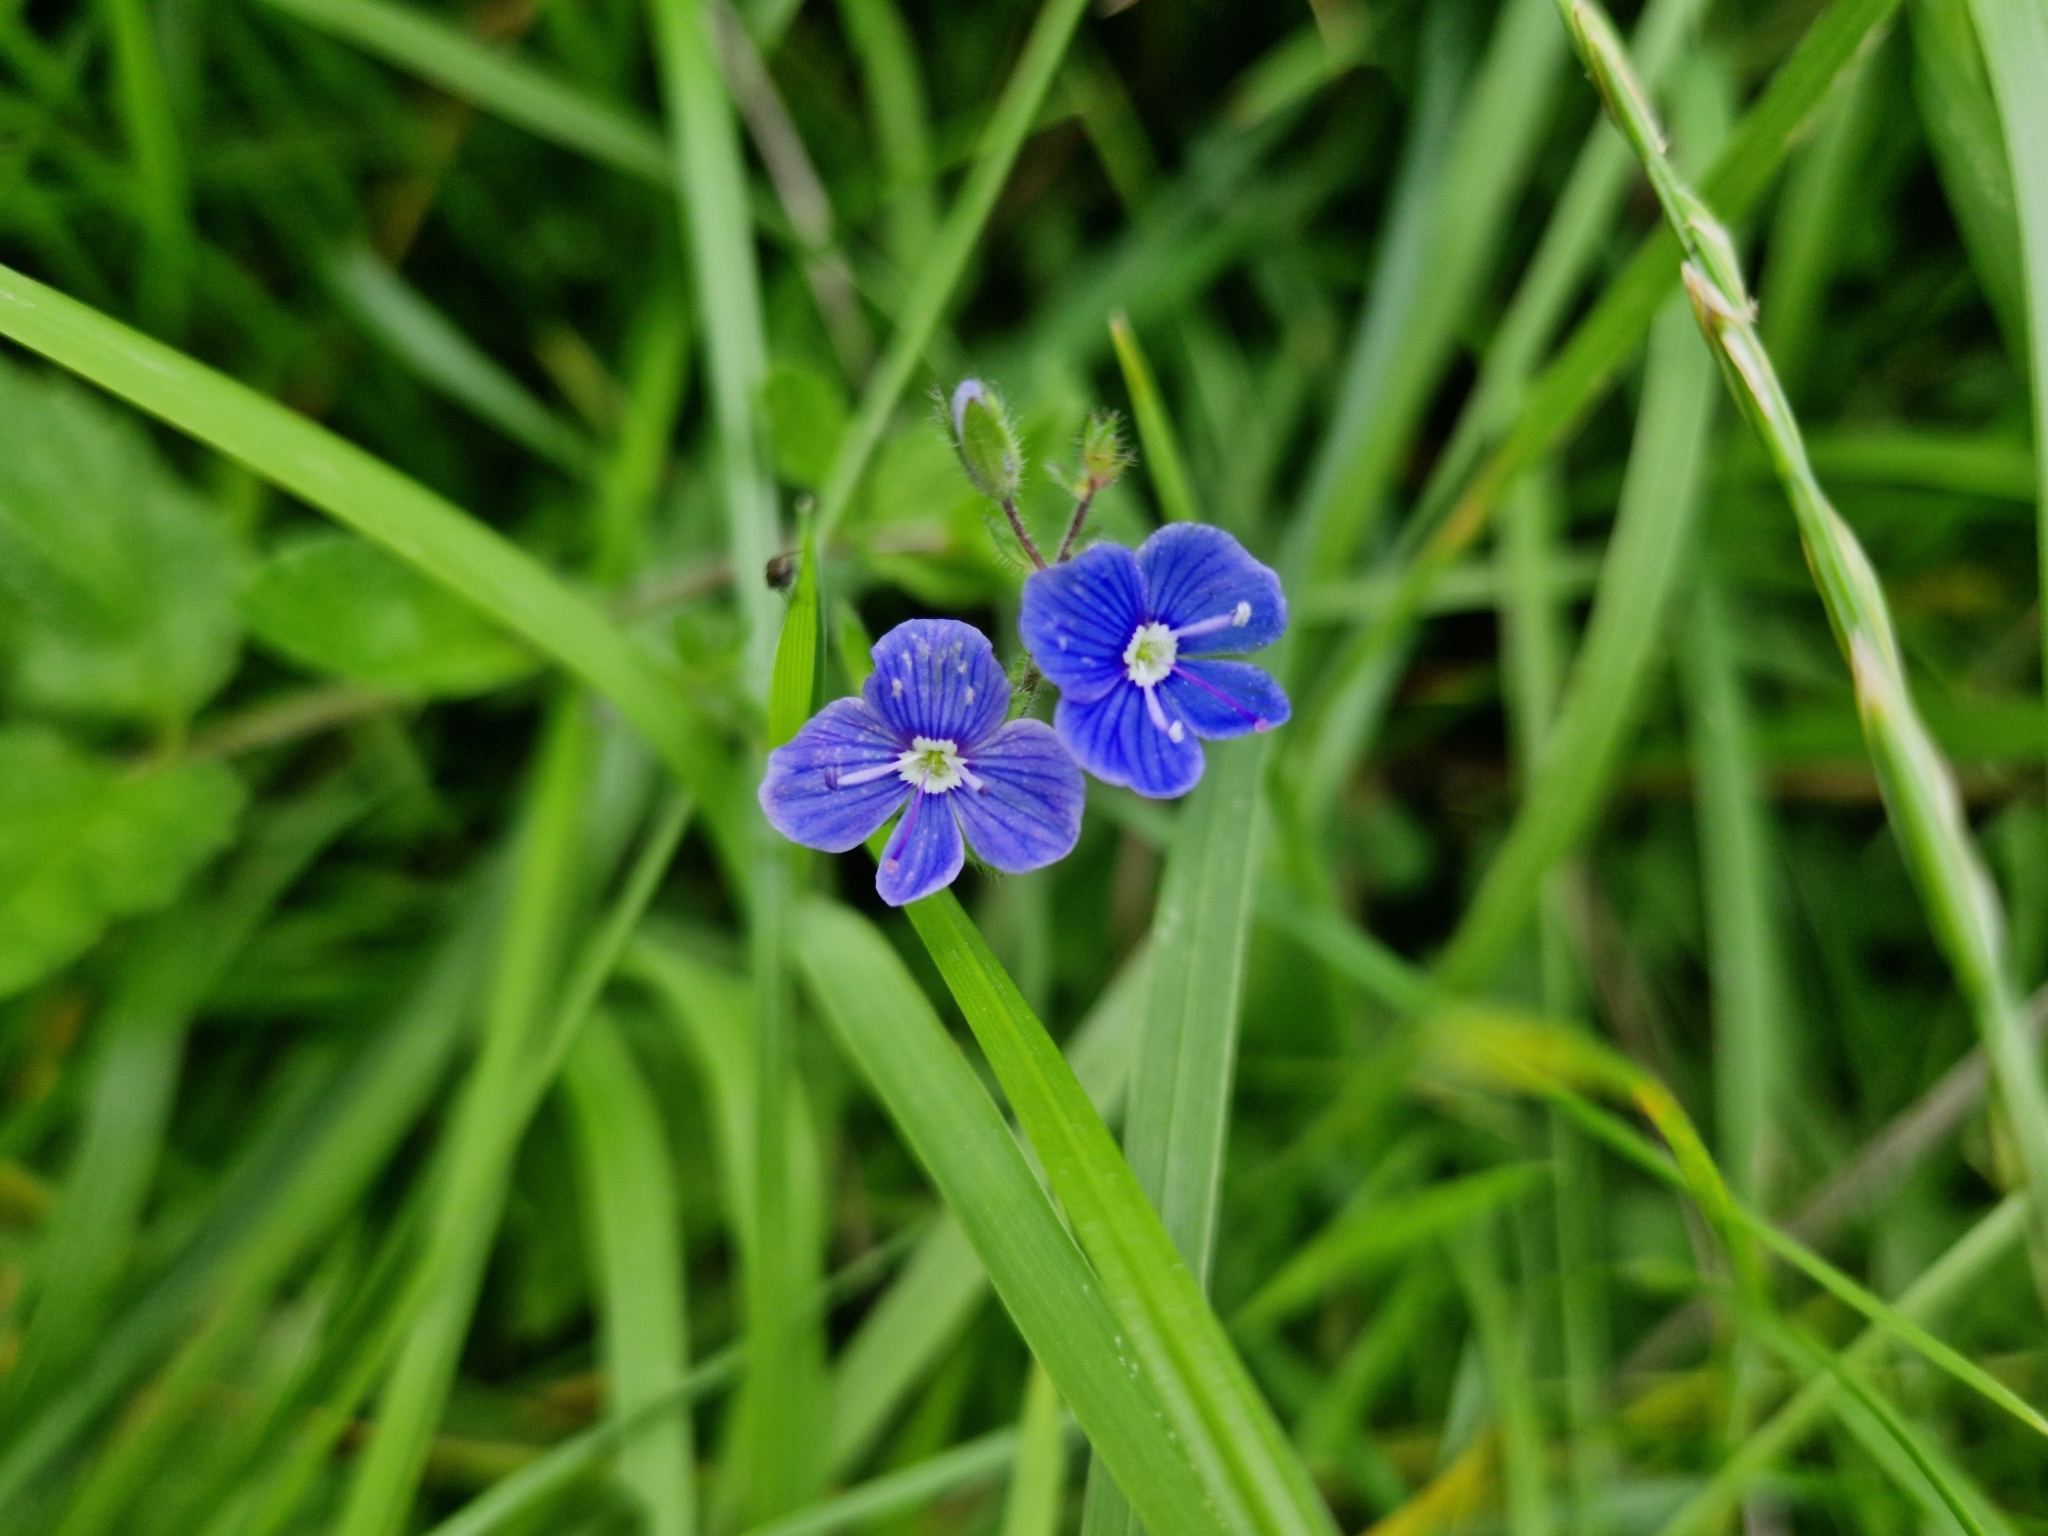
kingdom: Plantae
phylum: Tracheophyta
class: Magnoliopsida
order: Lamiales
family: Plantaginaceae
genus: Veronica
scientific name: Veronica chamaedrys
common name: Germander speedwell
